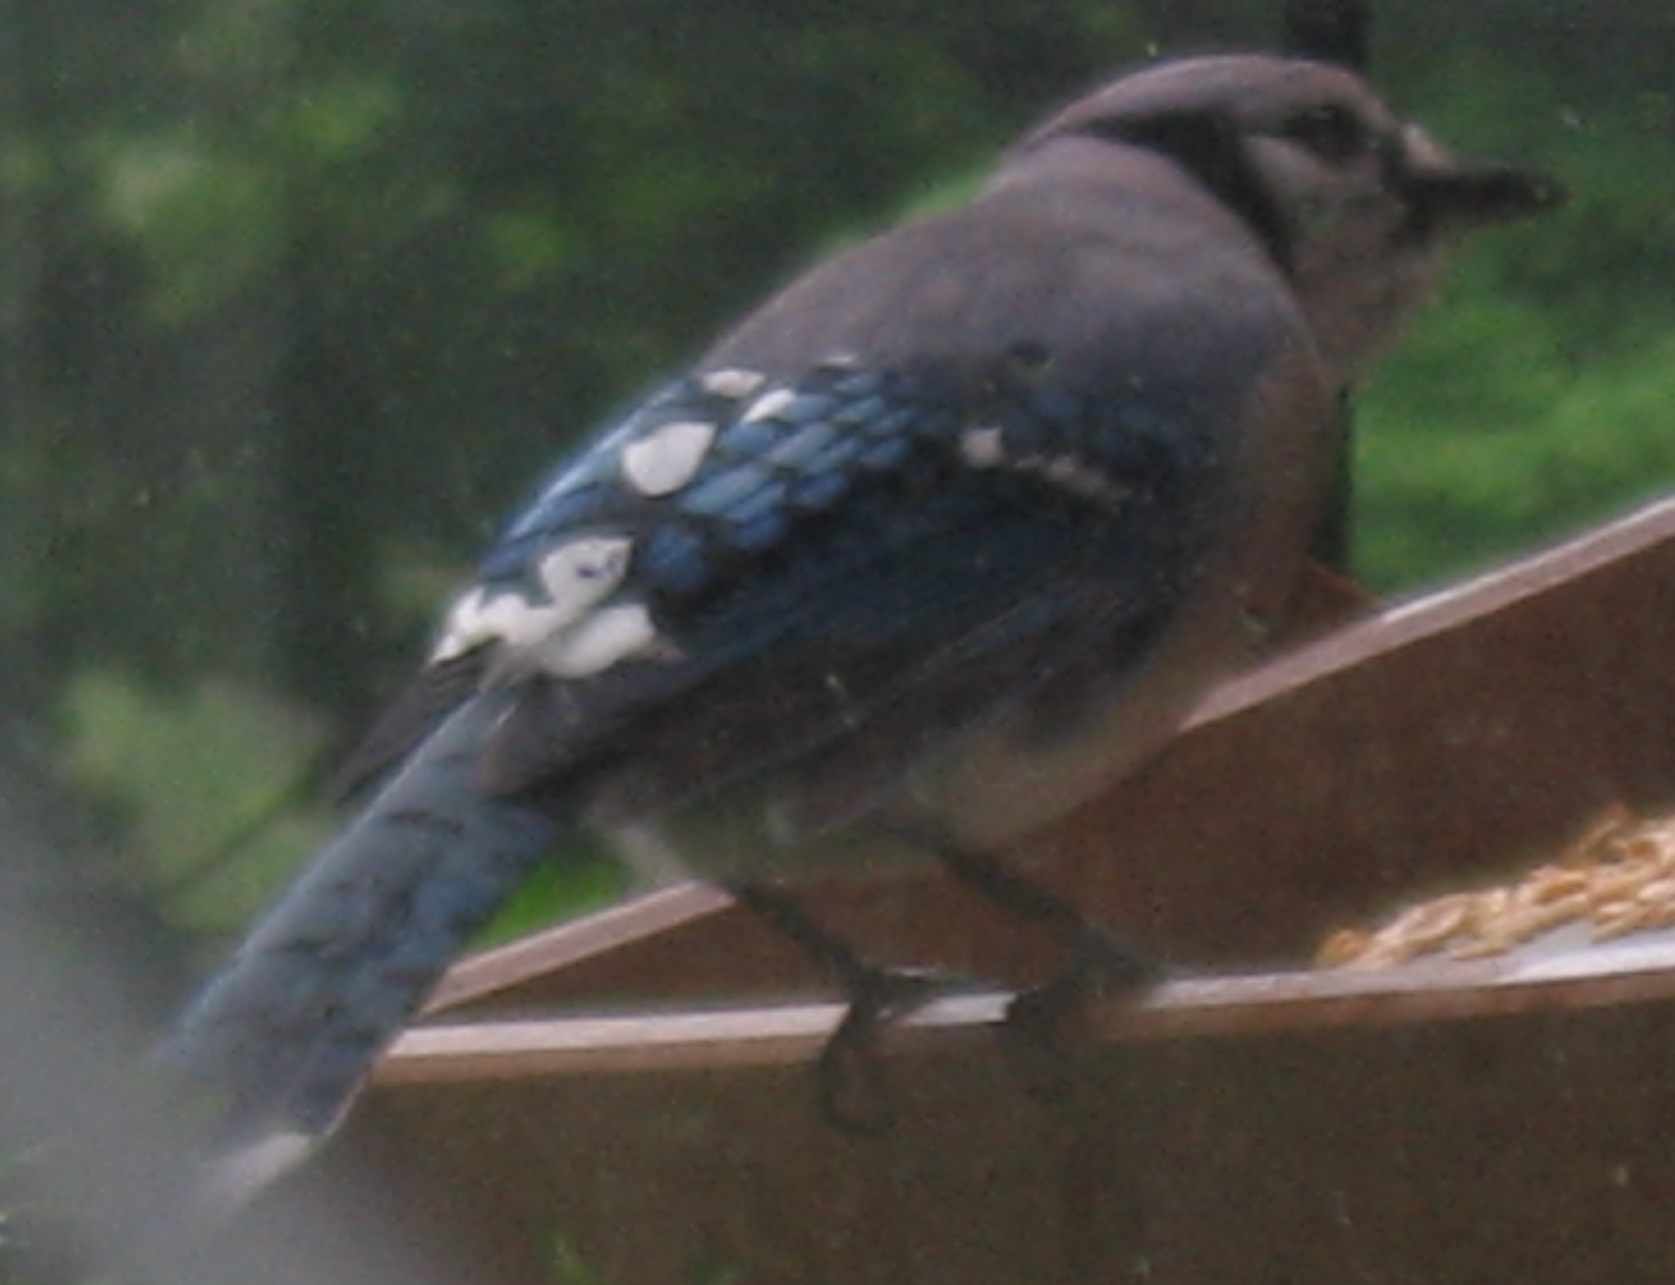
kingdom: Animalia
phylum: Chordata
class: Aves
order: Passeriformes
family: Corvidae
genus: Cyanocitta
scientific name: Cyanocitta cristata
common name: Blue jay
